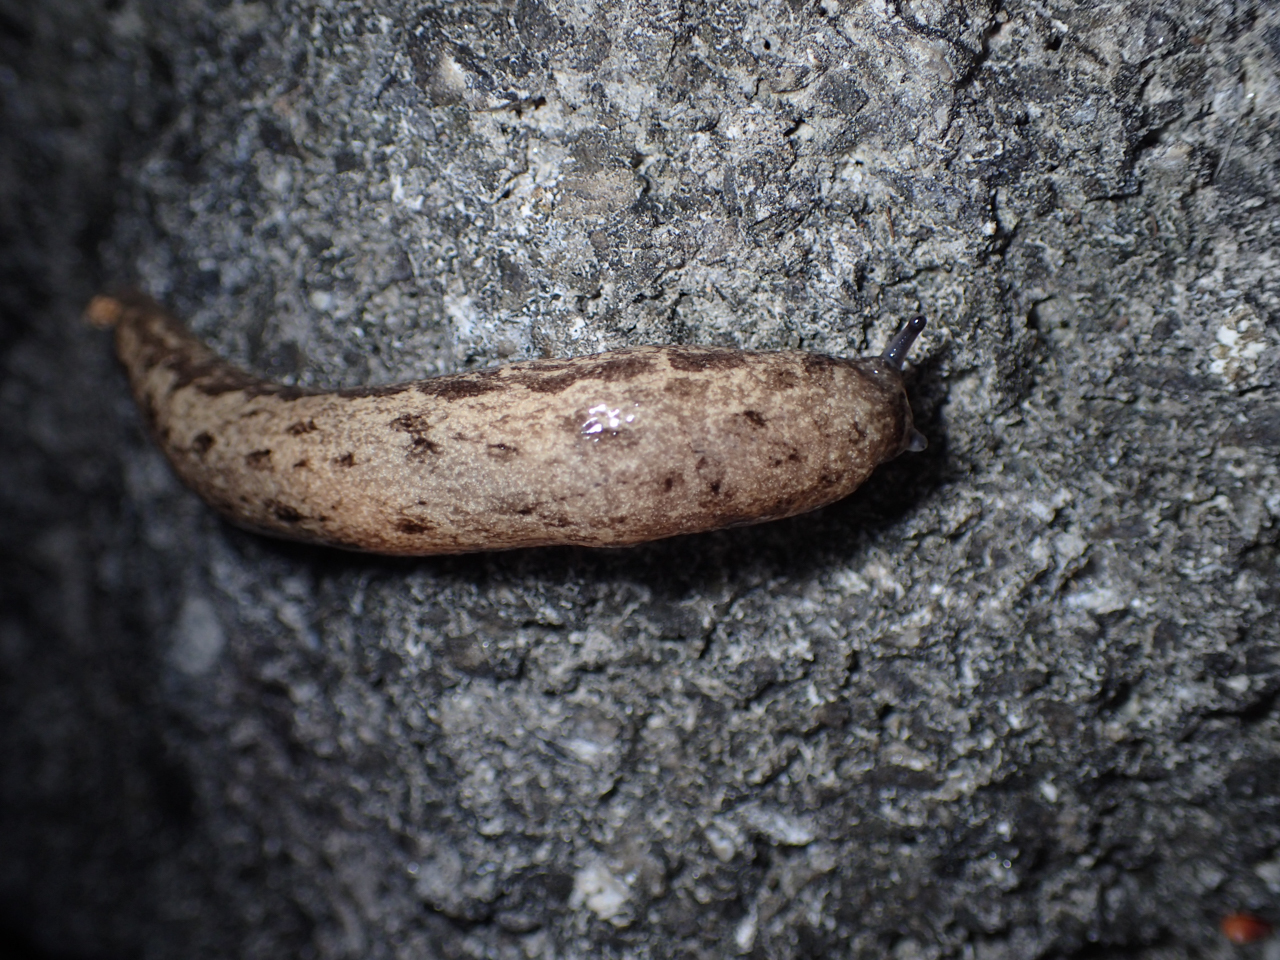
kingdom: Animalia
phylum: Mollusca
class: Gastropoda
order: Stylommatophora
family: Philomycidae
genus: Megapallifera
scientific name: Megapallifera mutabilis
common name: Changeable mantleslug
